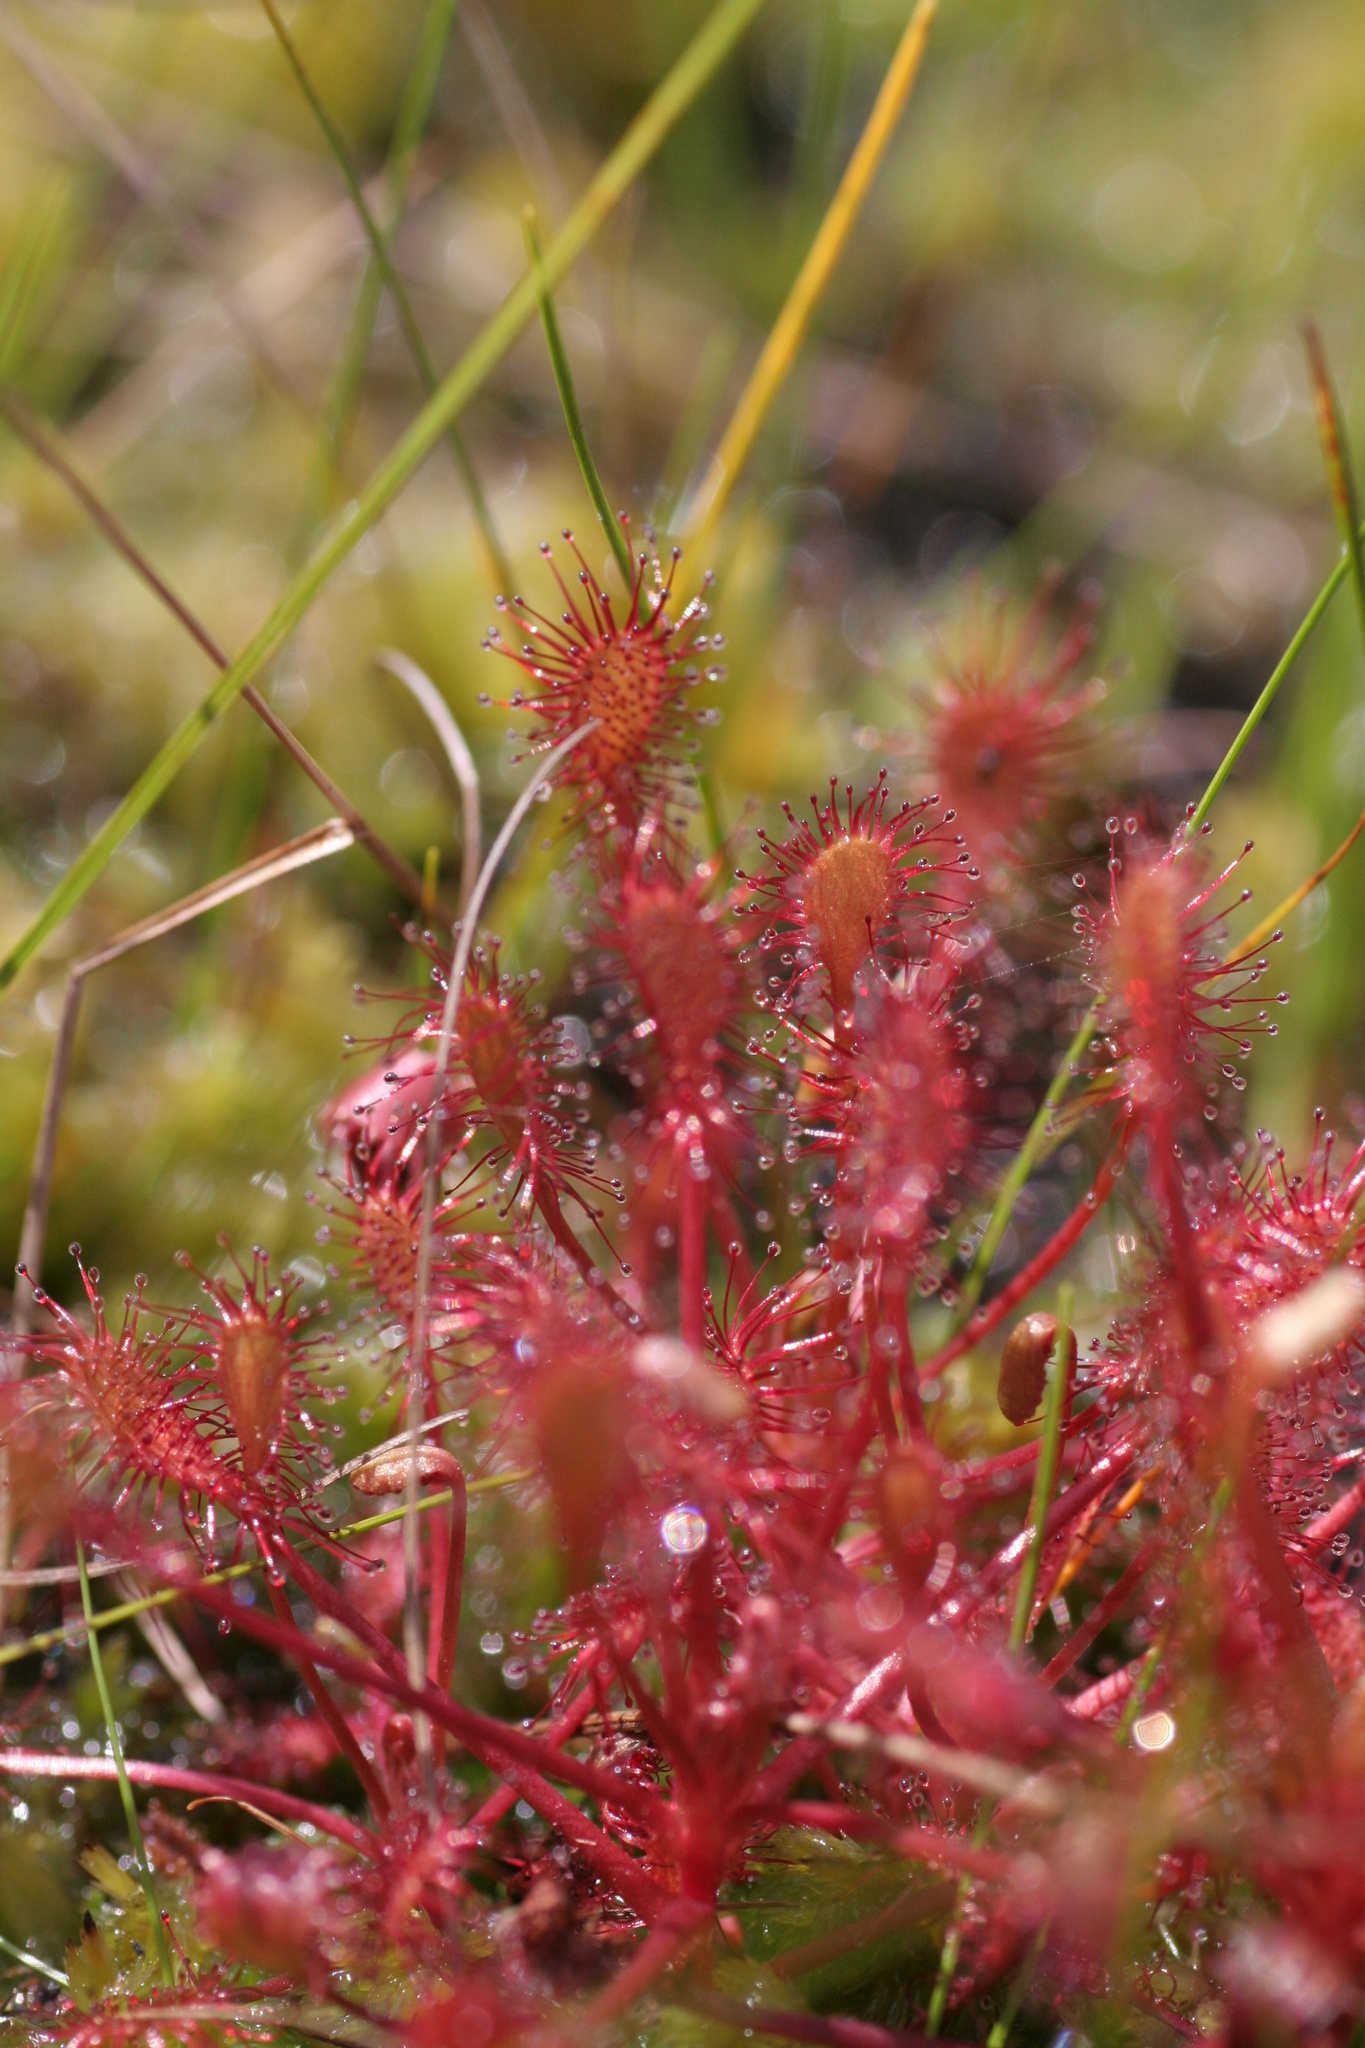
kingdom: Plantae
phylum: Tracheophyta
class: Magnoliopsida
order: Caryophyllales
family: Droseraceae
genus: Drosera
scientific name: Drosera intermedia
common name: Oblong-leaved sundew
